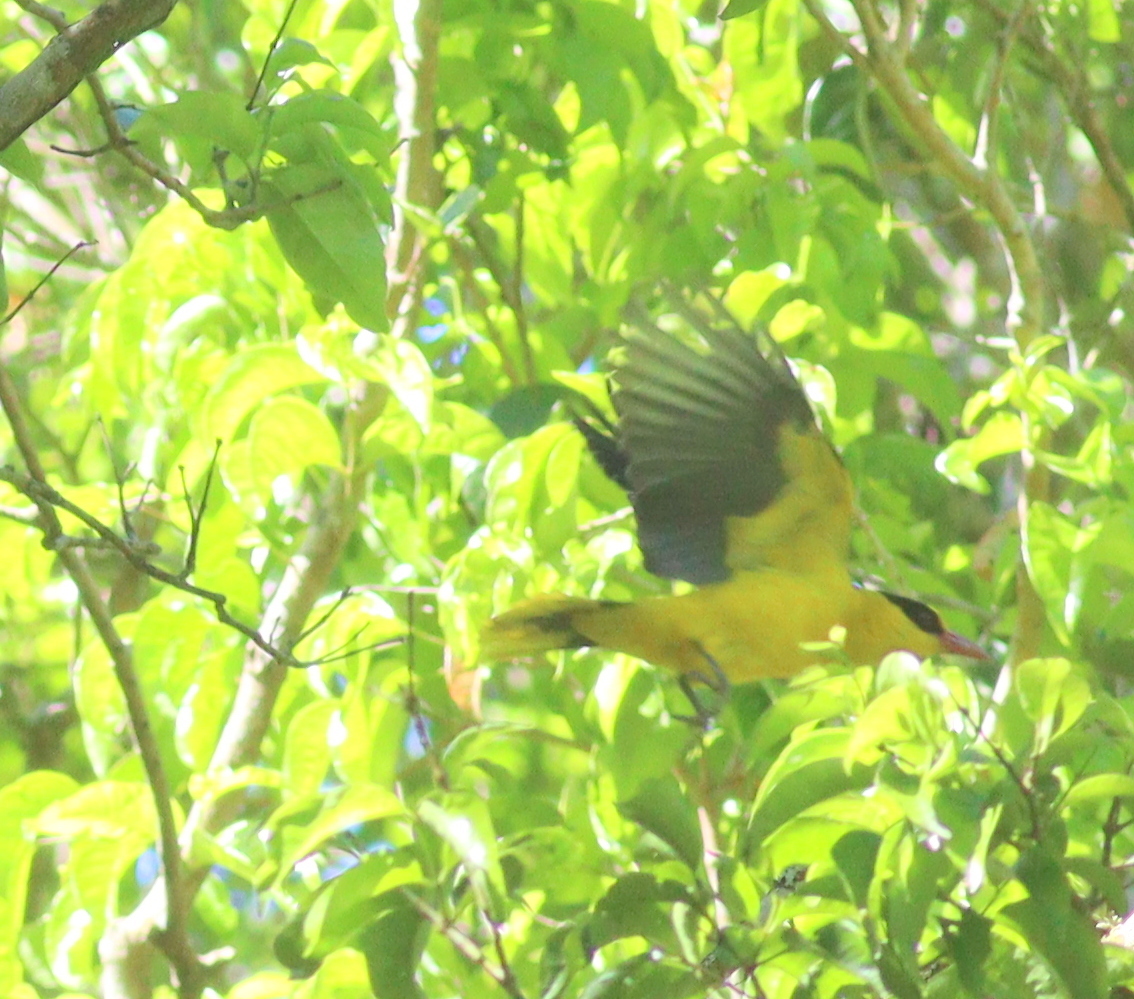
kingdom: Animalia
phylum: Chordata
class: Aves
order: Passeriformes
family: Oriolidae
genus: Oriolus
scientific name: Oriolus chinensis
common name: Black-naped oriole
